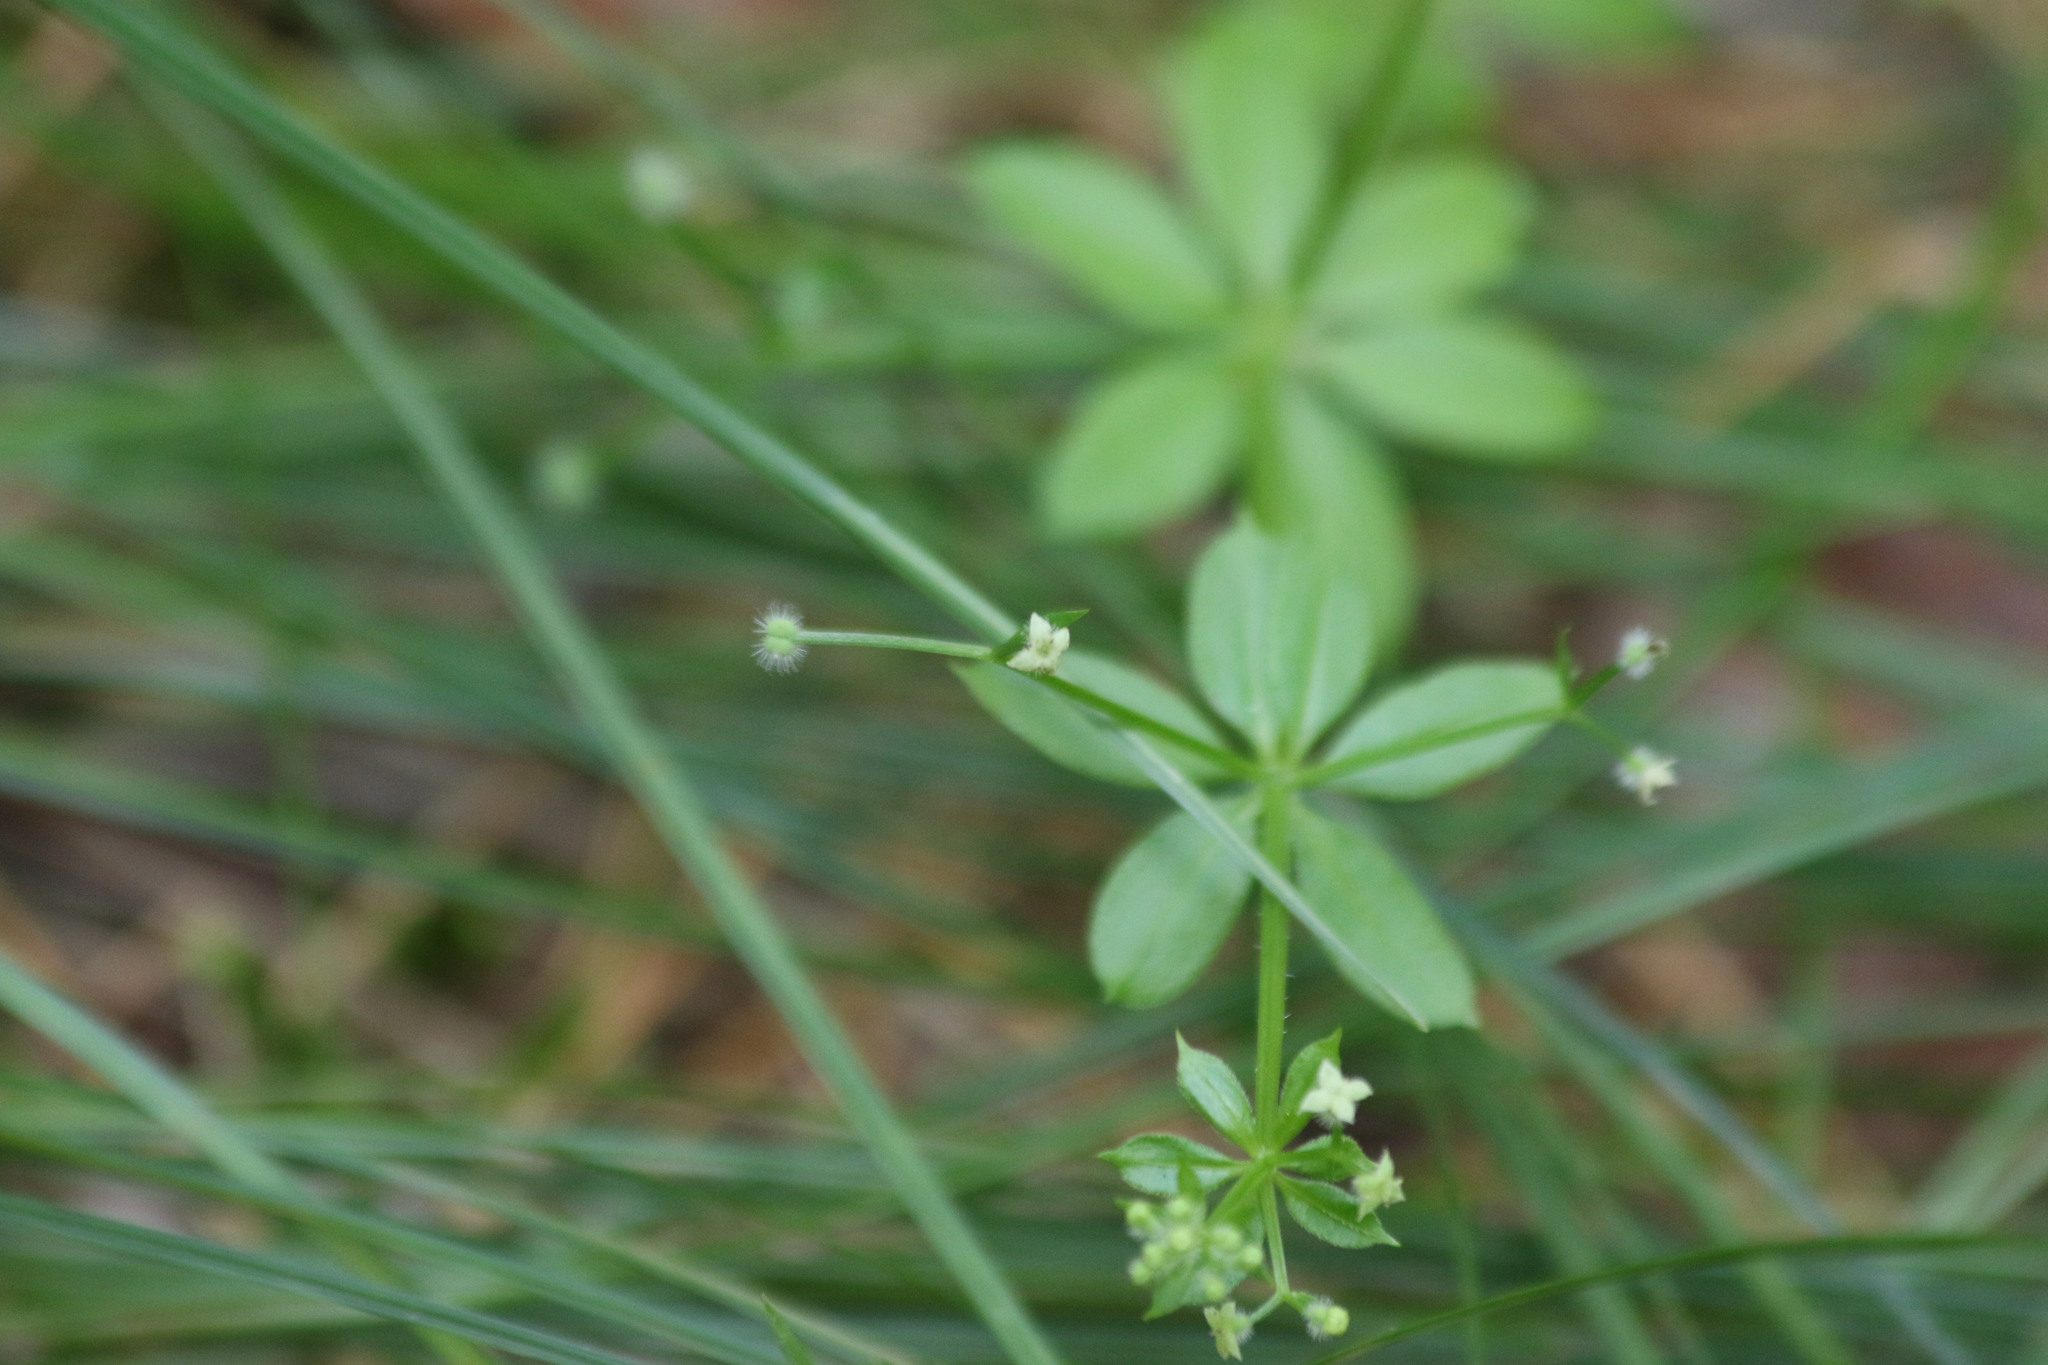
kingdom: Plantae
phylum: Tracheophyta
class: Magnoliopsida
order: Gentianales
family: Rubiaceae
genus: Galium
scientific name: Galium triflorum
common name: Fragrant bedstraw
